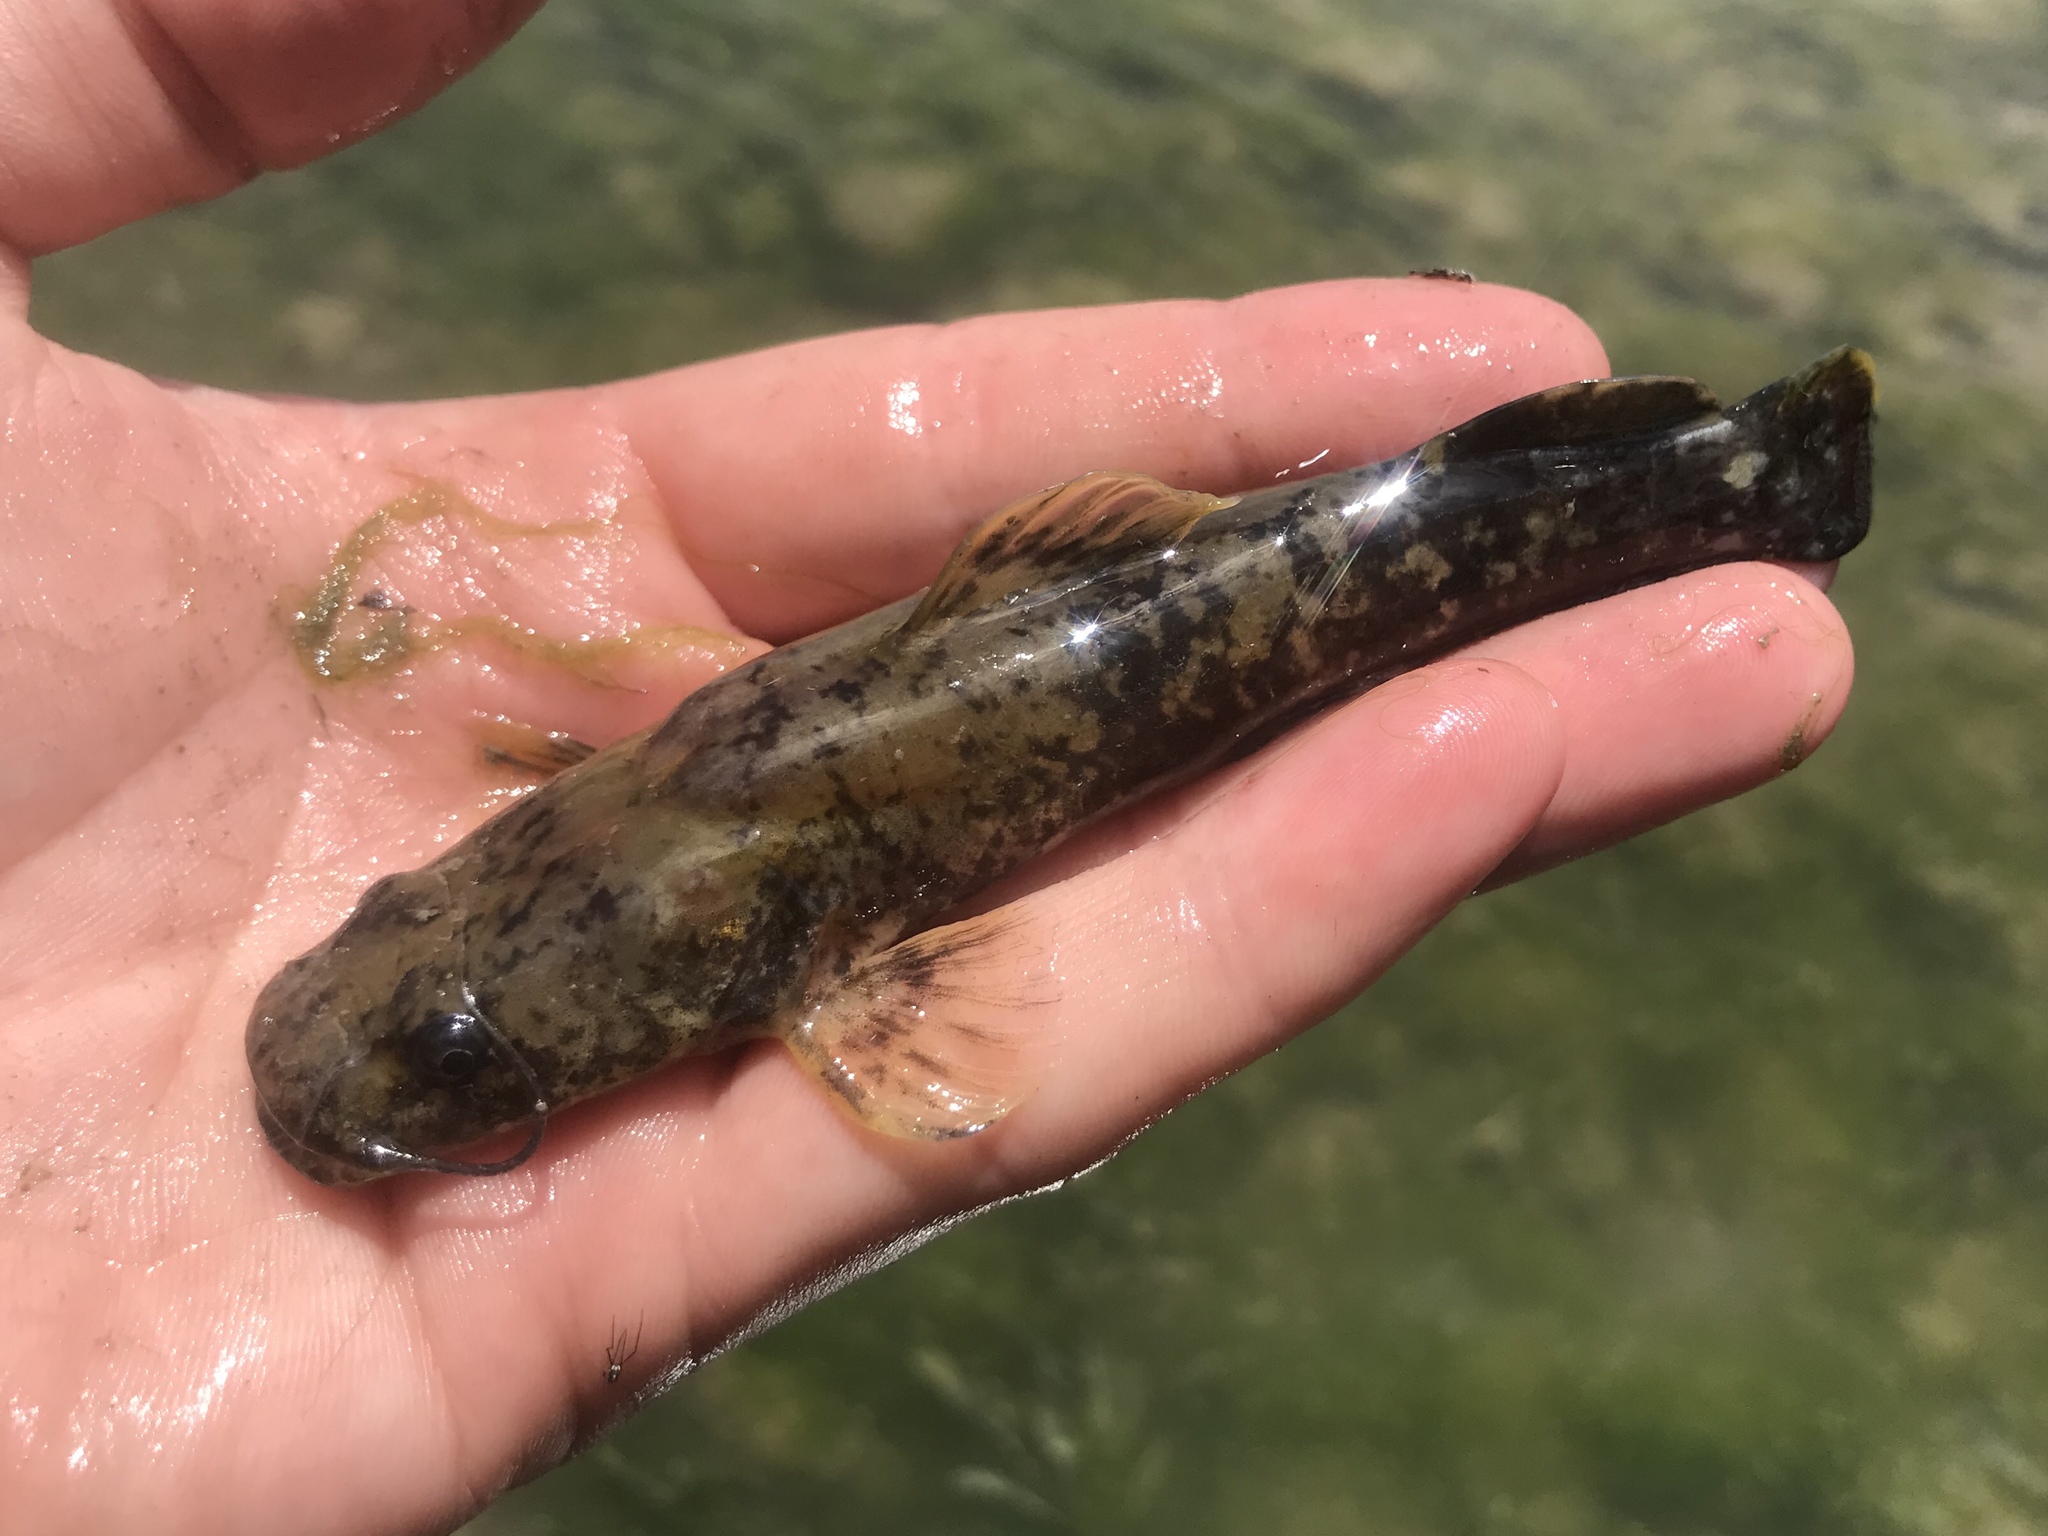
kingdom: Animalia
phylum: Chordata
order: Siluriformes
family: Ictaluridae
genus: Pylodictis
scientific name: Pylodictis olivaris
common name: Flathead catfish
